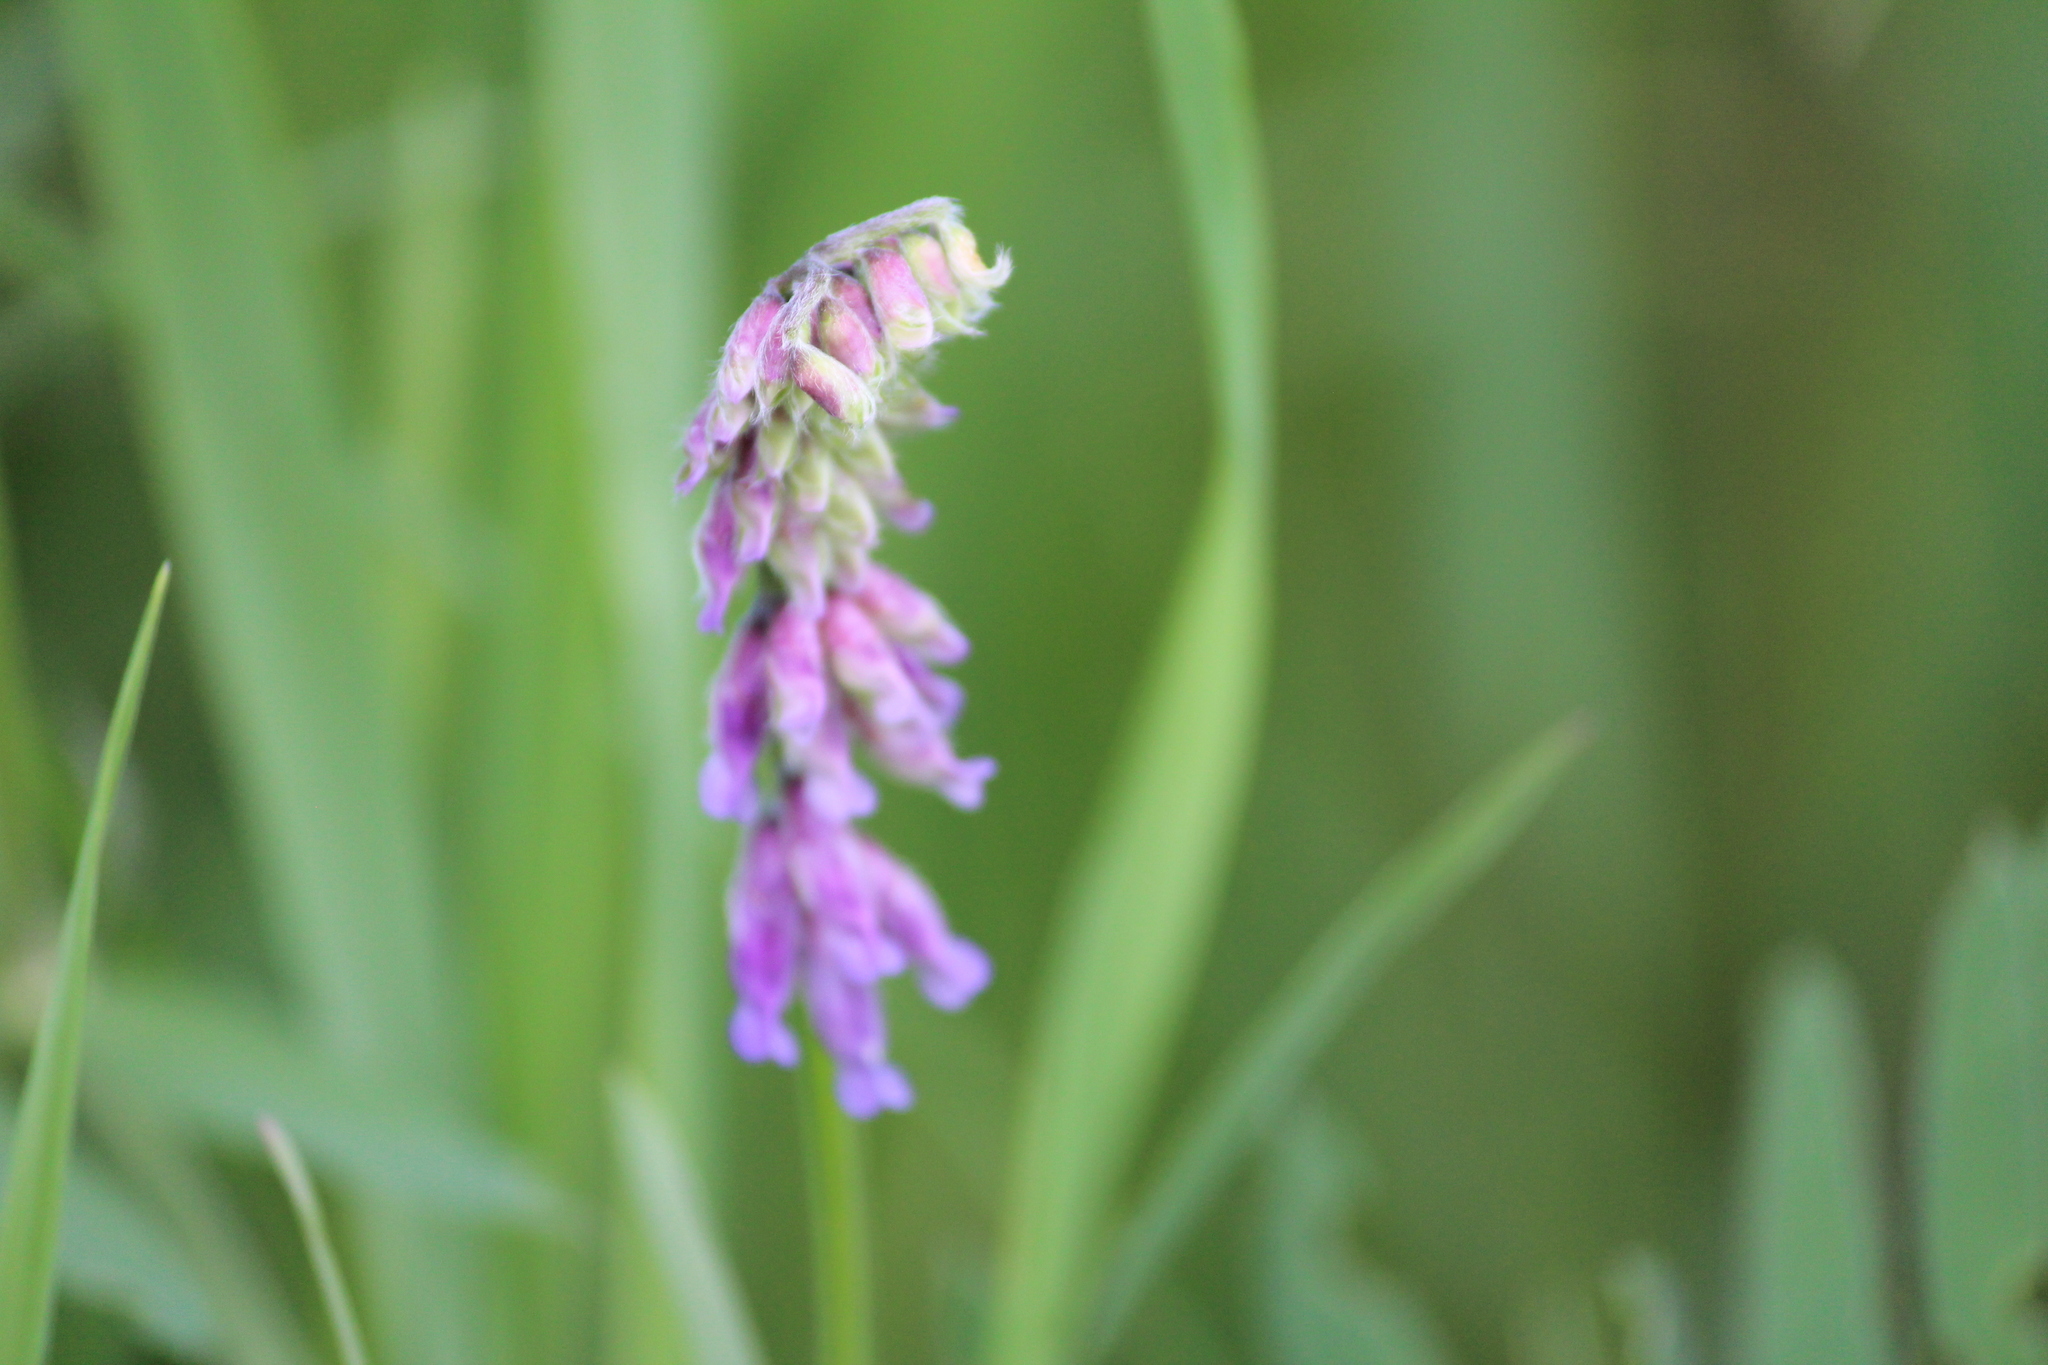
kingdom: Plantae
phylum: Tracheophyta
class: Magnoliopsida
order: Fabales
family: Fabaceae
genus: Vicia
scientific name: Vicia cracca
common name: Bird vetch
